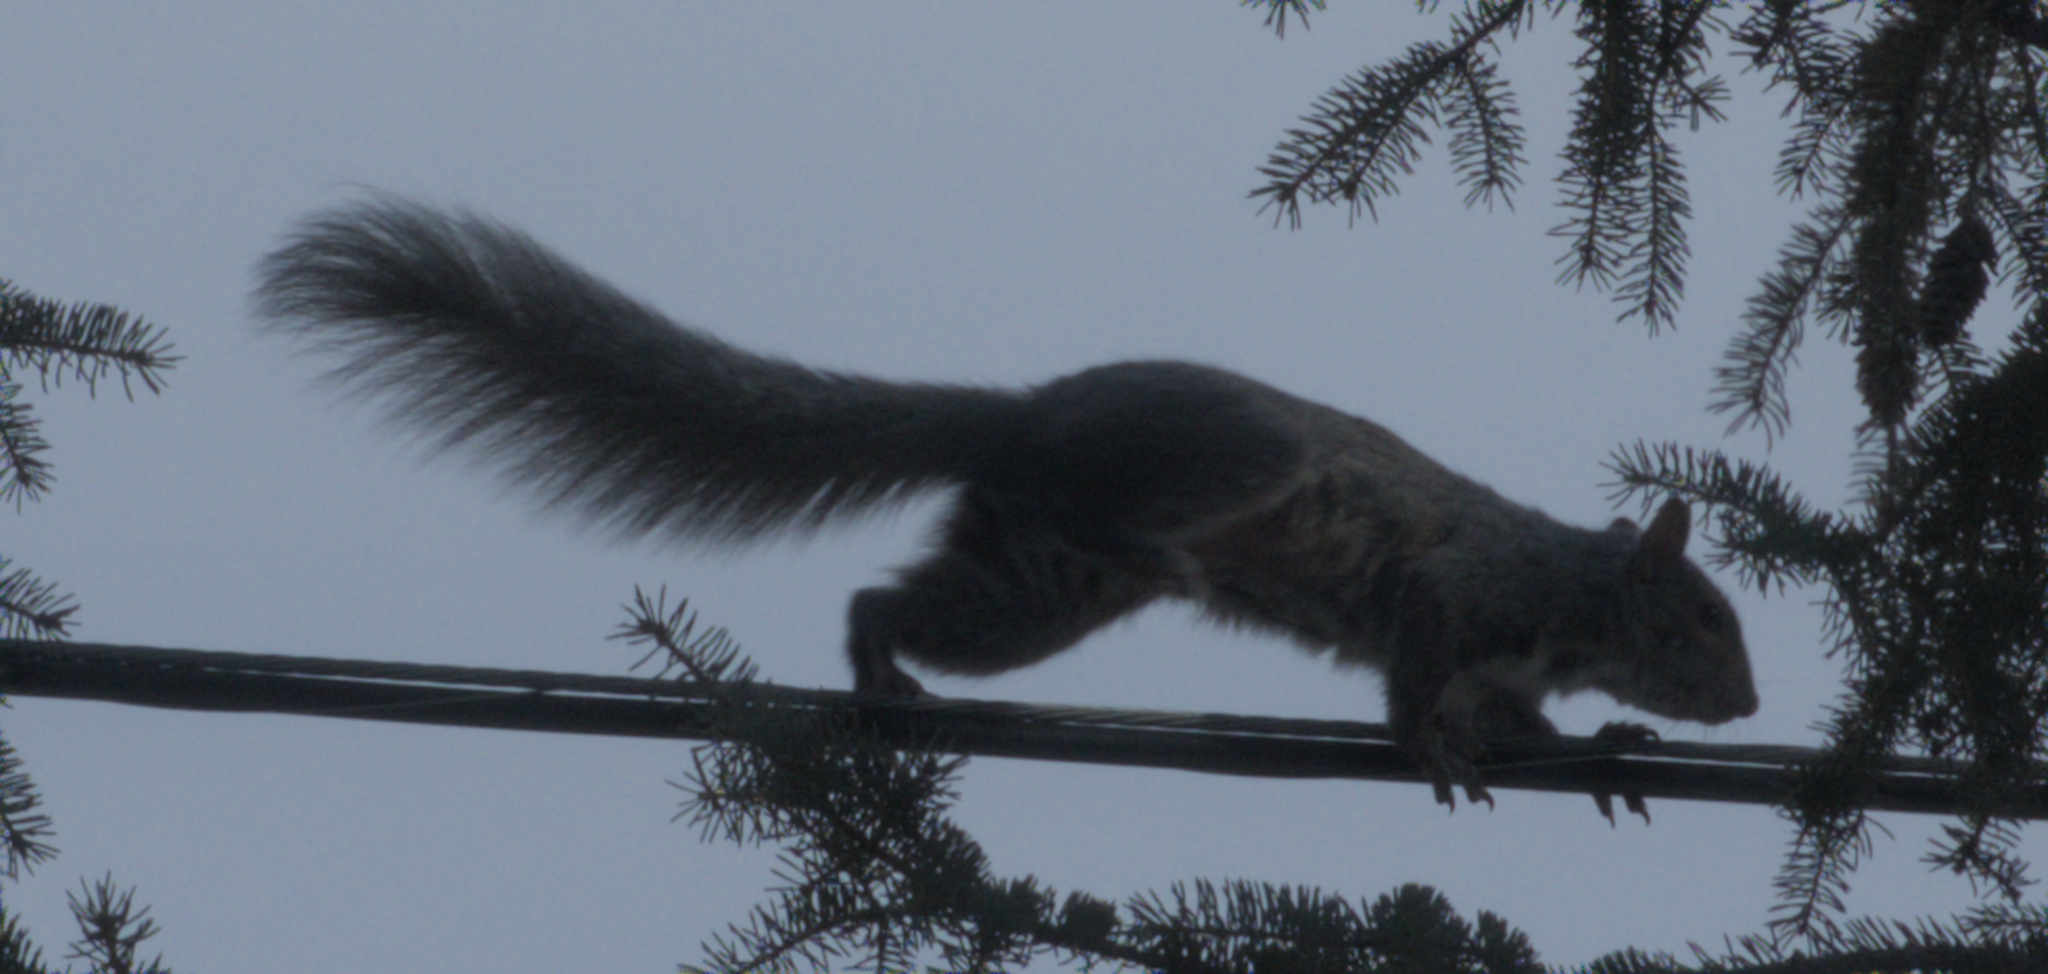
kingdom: Animalia
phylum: Chordata
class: Mammalia
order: Rodentia
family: Sciuridae
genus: Sciurus
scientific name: Sciurus carolinensis
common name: Eastern gray squirrel
